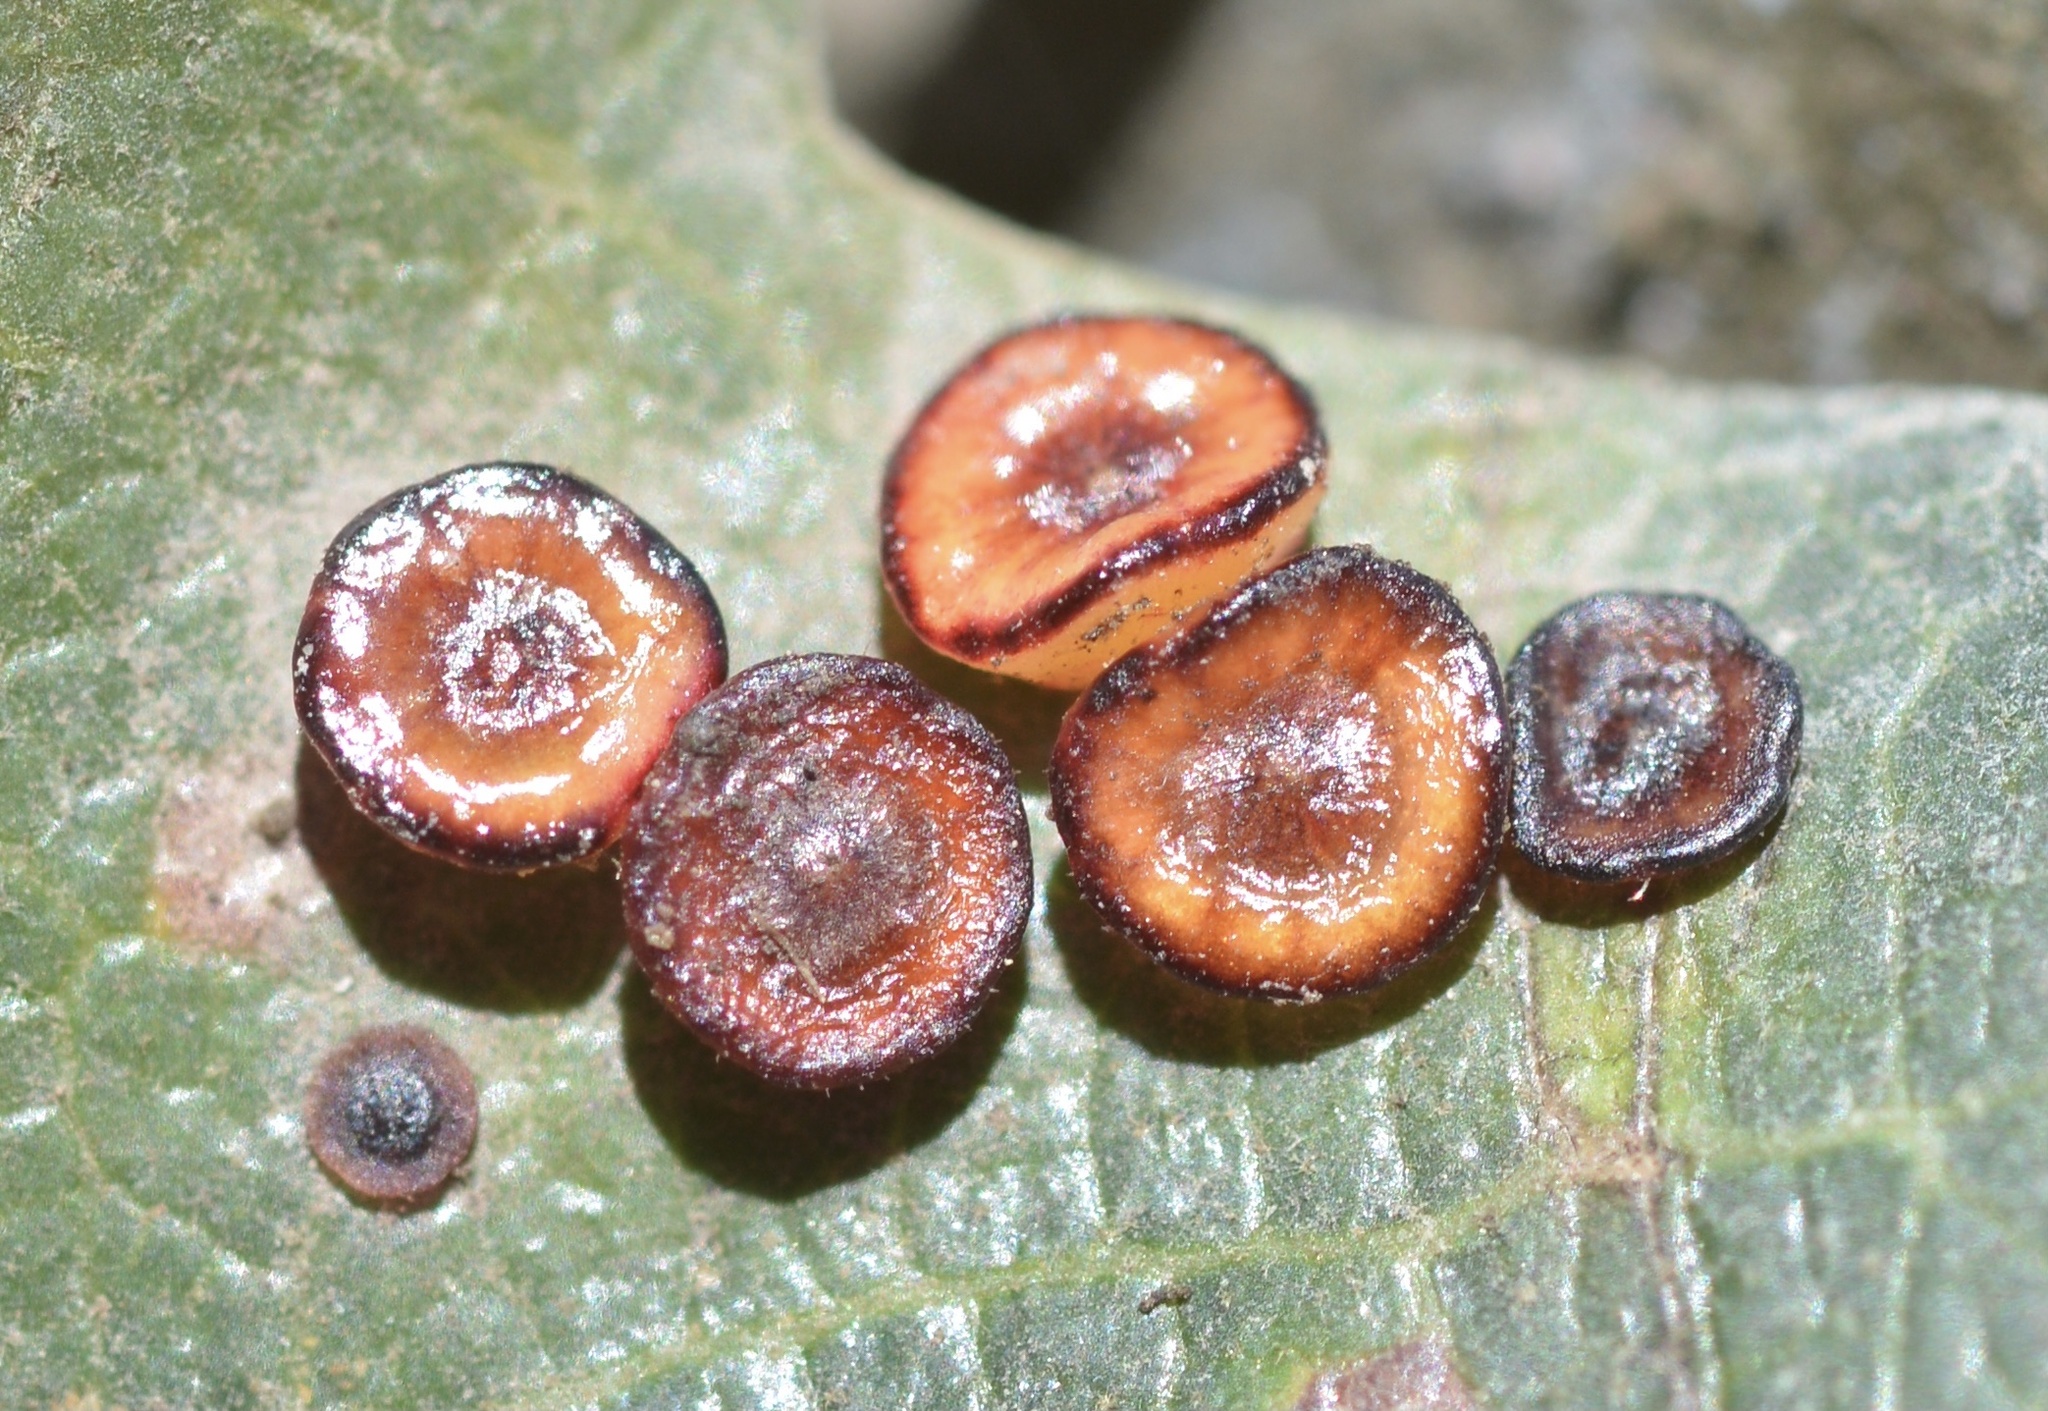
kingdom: Animalia
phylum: Arthropoda
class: Insecta
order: Hymenoptera
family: Cynipidae
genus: Andricus
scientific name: Andricus
